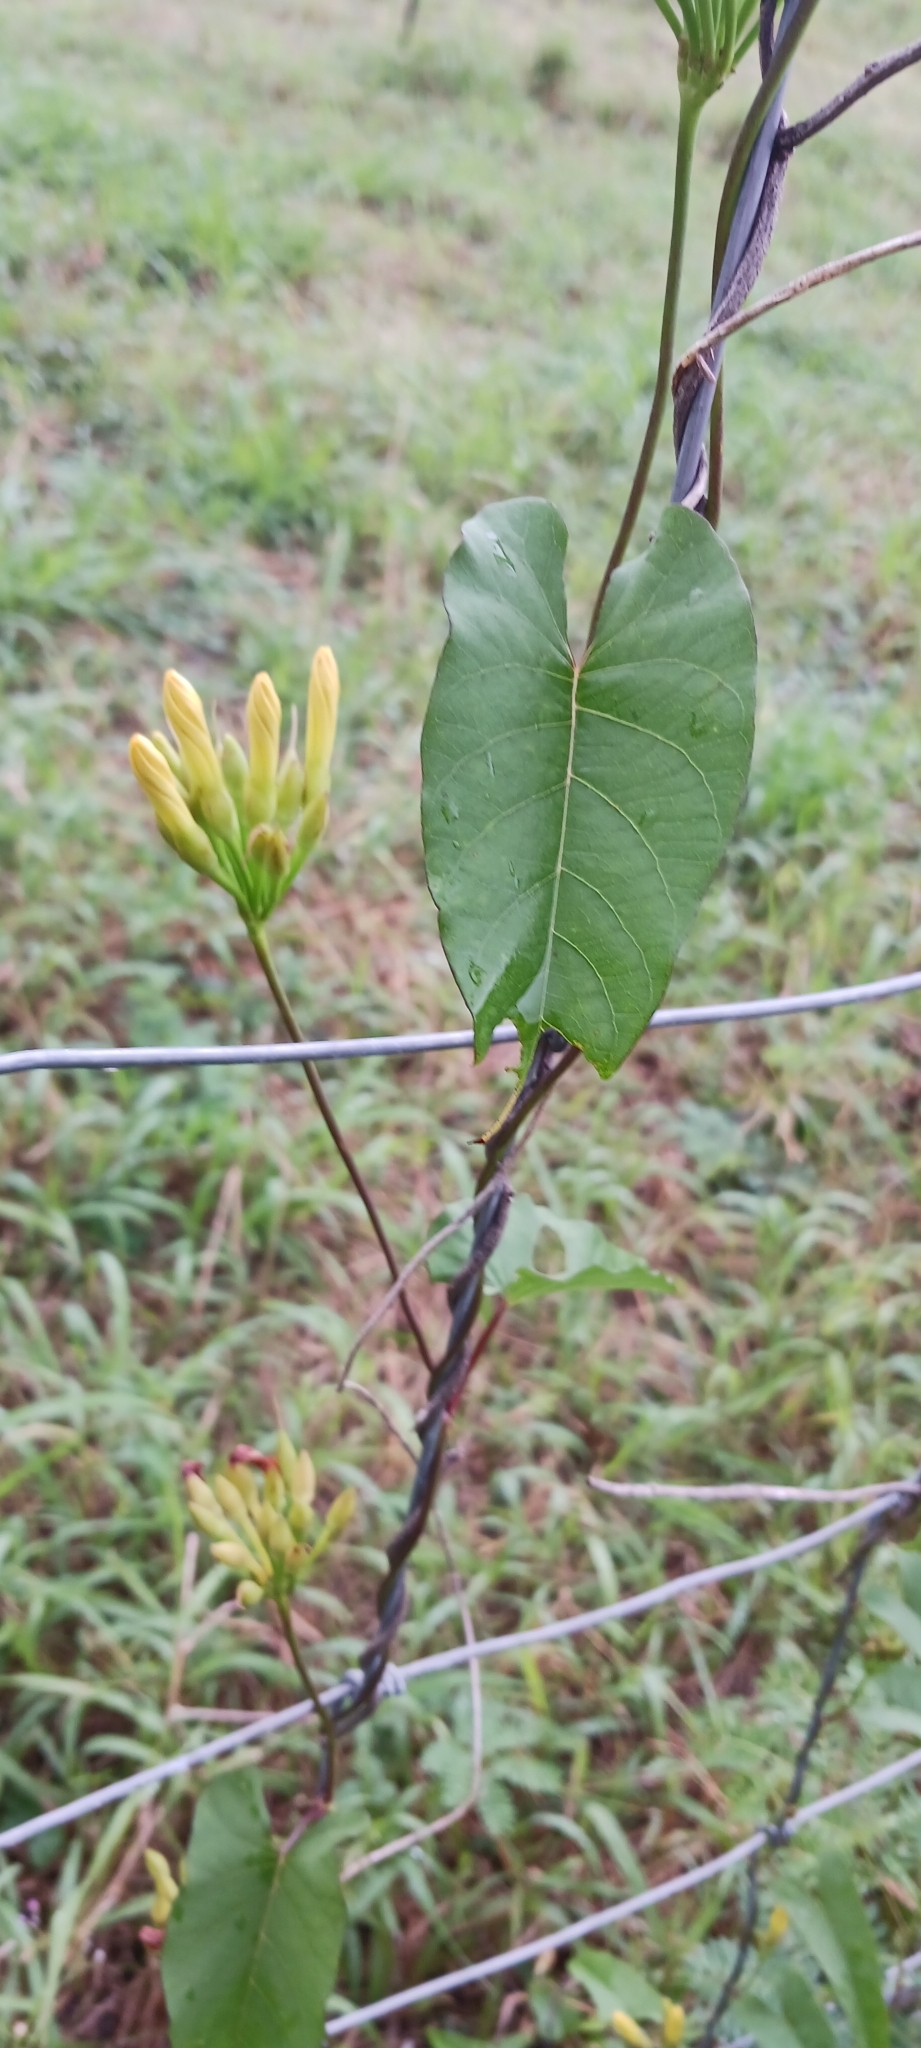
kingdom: Plantae
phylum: Tracheophyta
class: Magnoliopsida
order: Solanales
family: Convolvulaceae
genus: Camonea
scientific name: Camonea umbellata
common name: Hogvine
